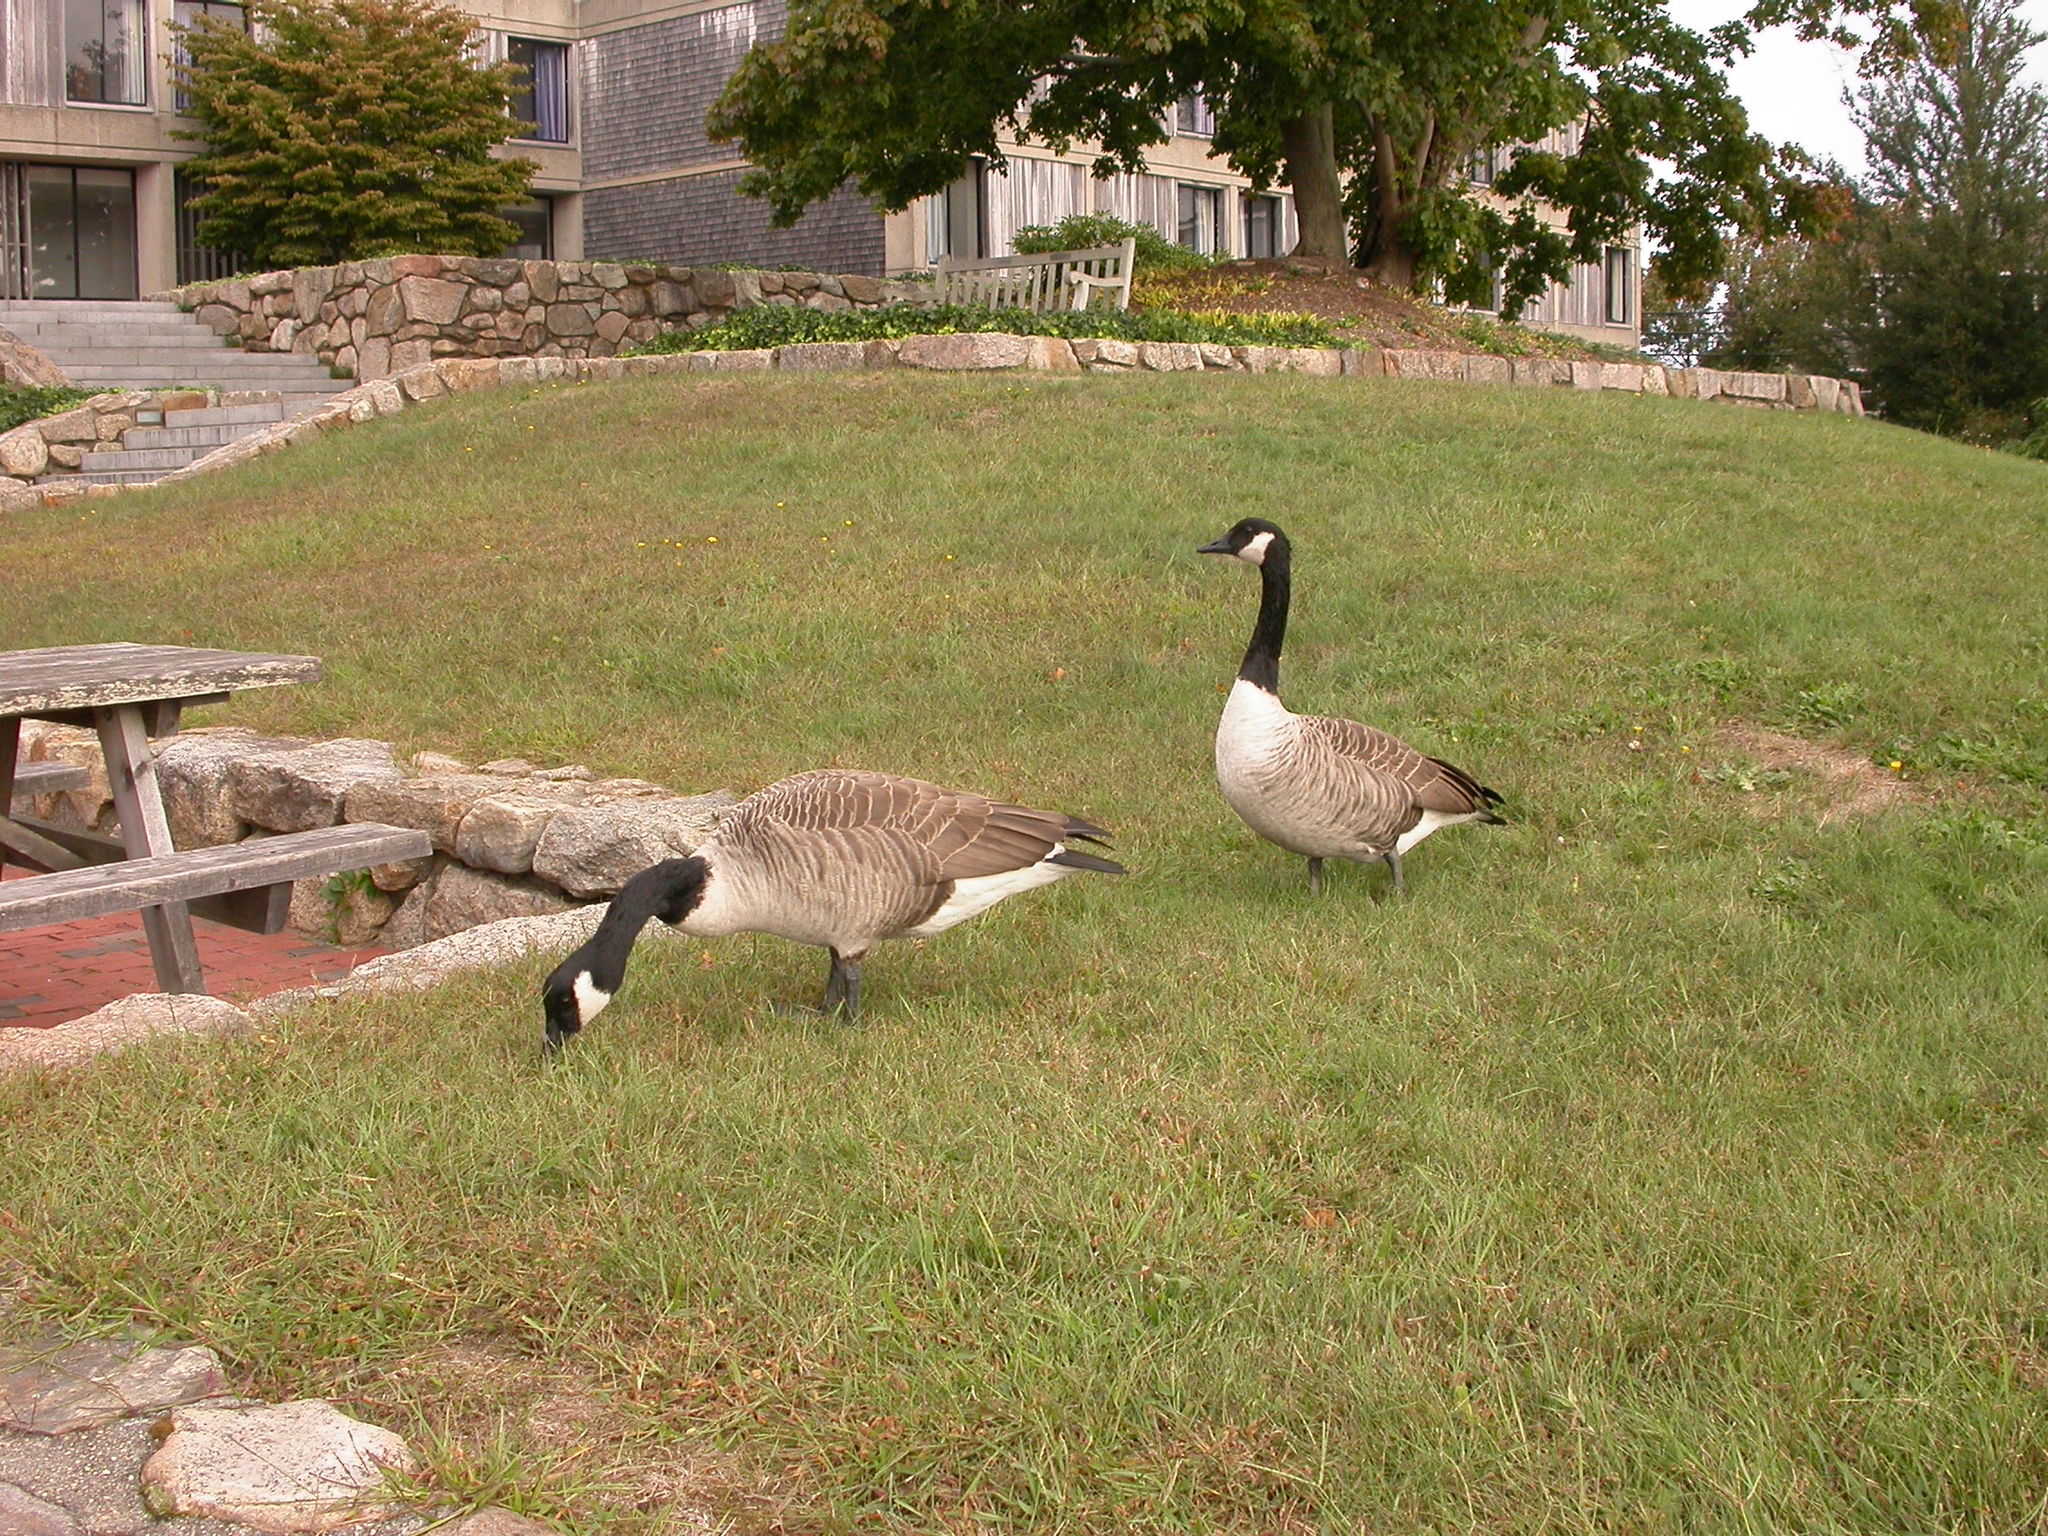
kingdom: Animalia
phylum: Chordata
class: Aves
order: Anseriformes
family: Anatidae
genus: Branta
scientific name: Branta canadensis
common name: Canada goose
